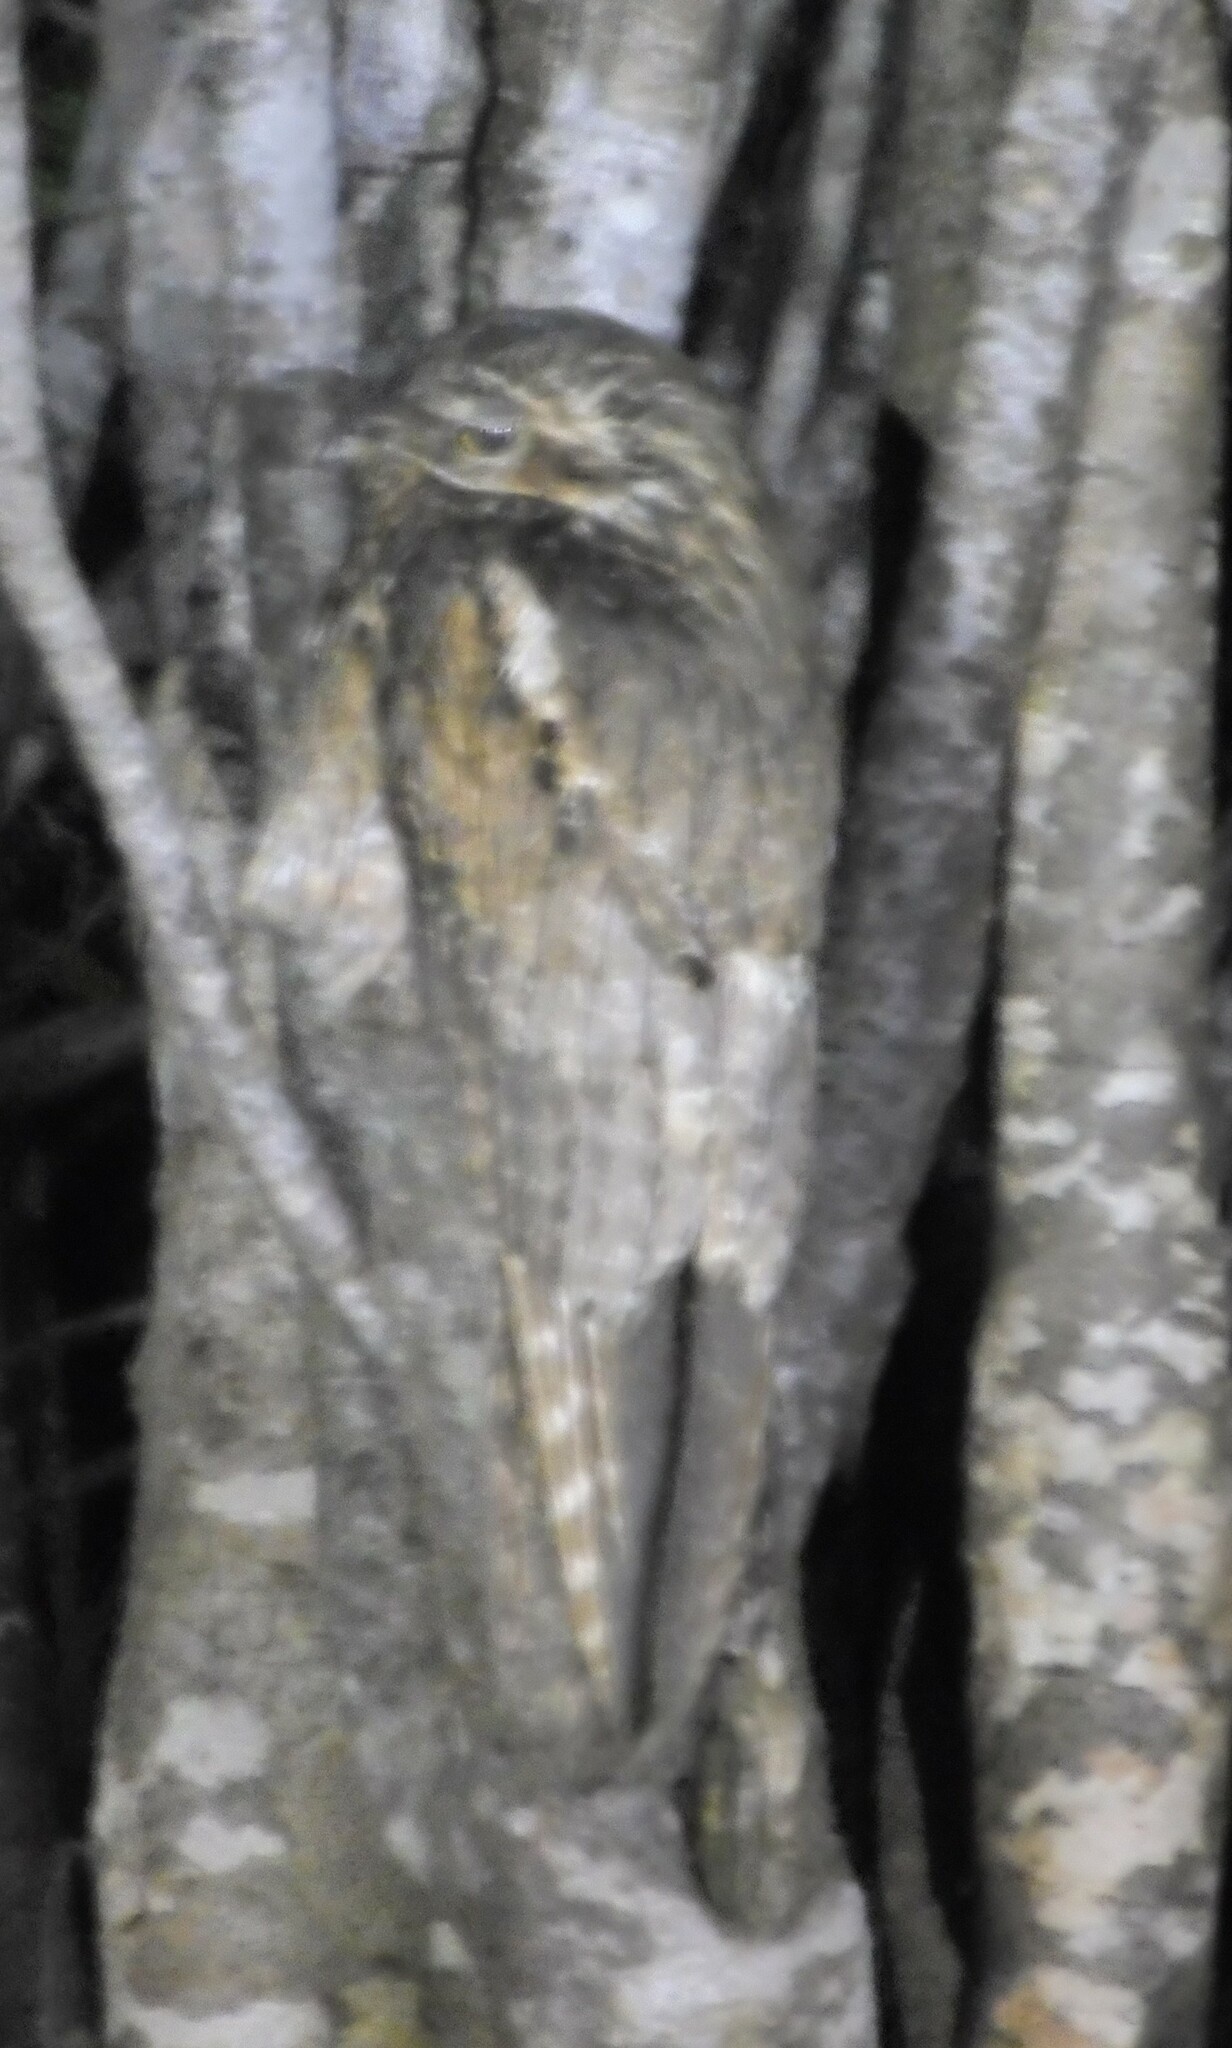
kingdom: Animalia
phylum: Chordata
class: Aves
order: Nyctibiiformes
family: Nyctibiidae
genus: Nyctibius
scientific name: Nyctibius grandis
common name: Great potoo
